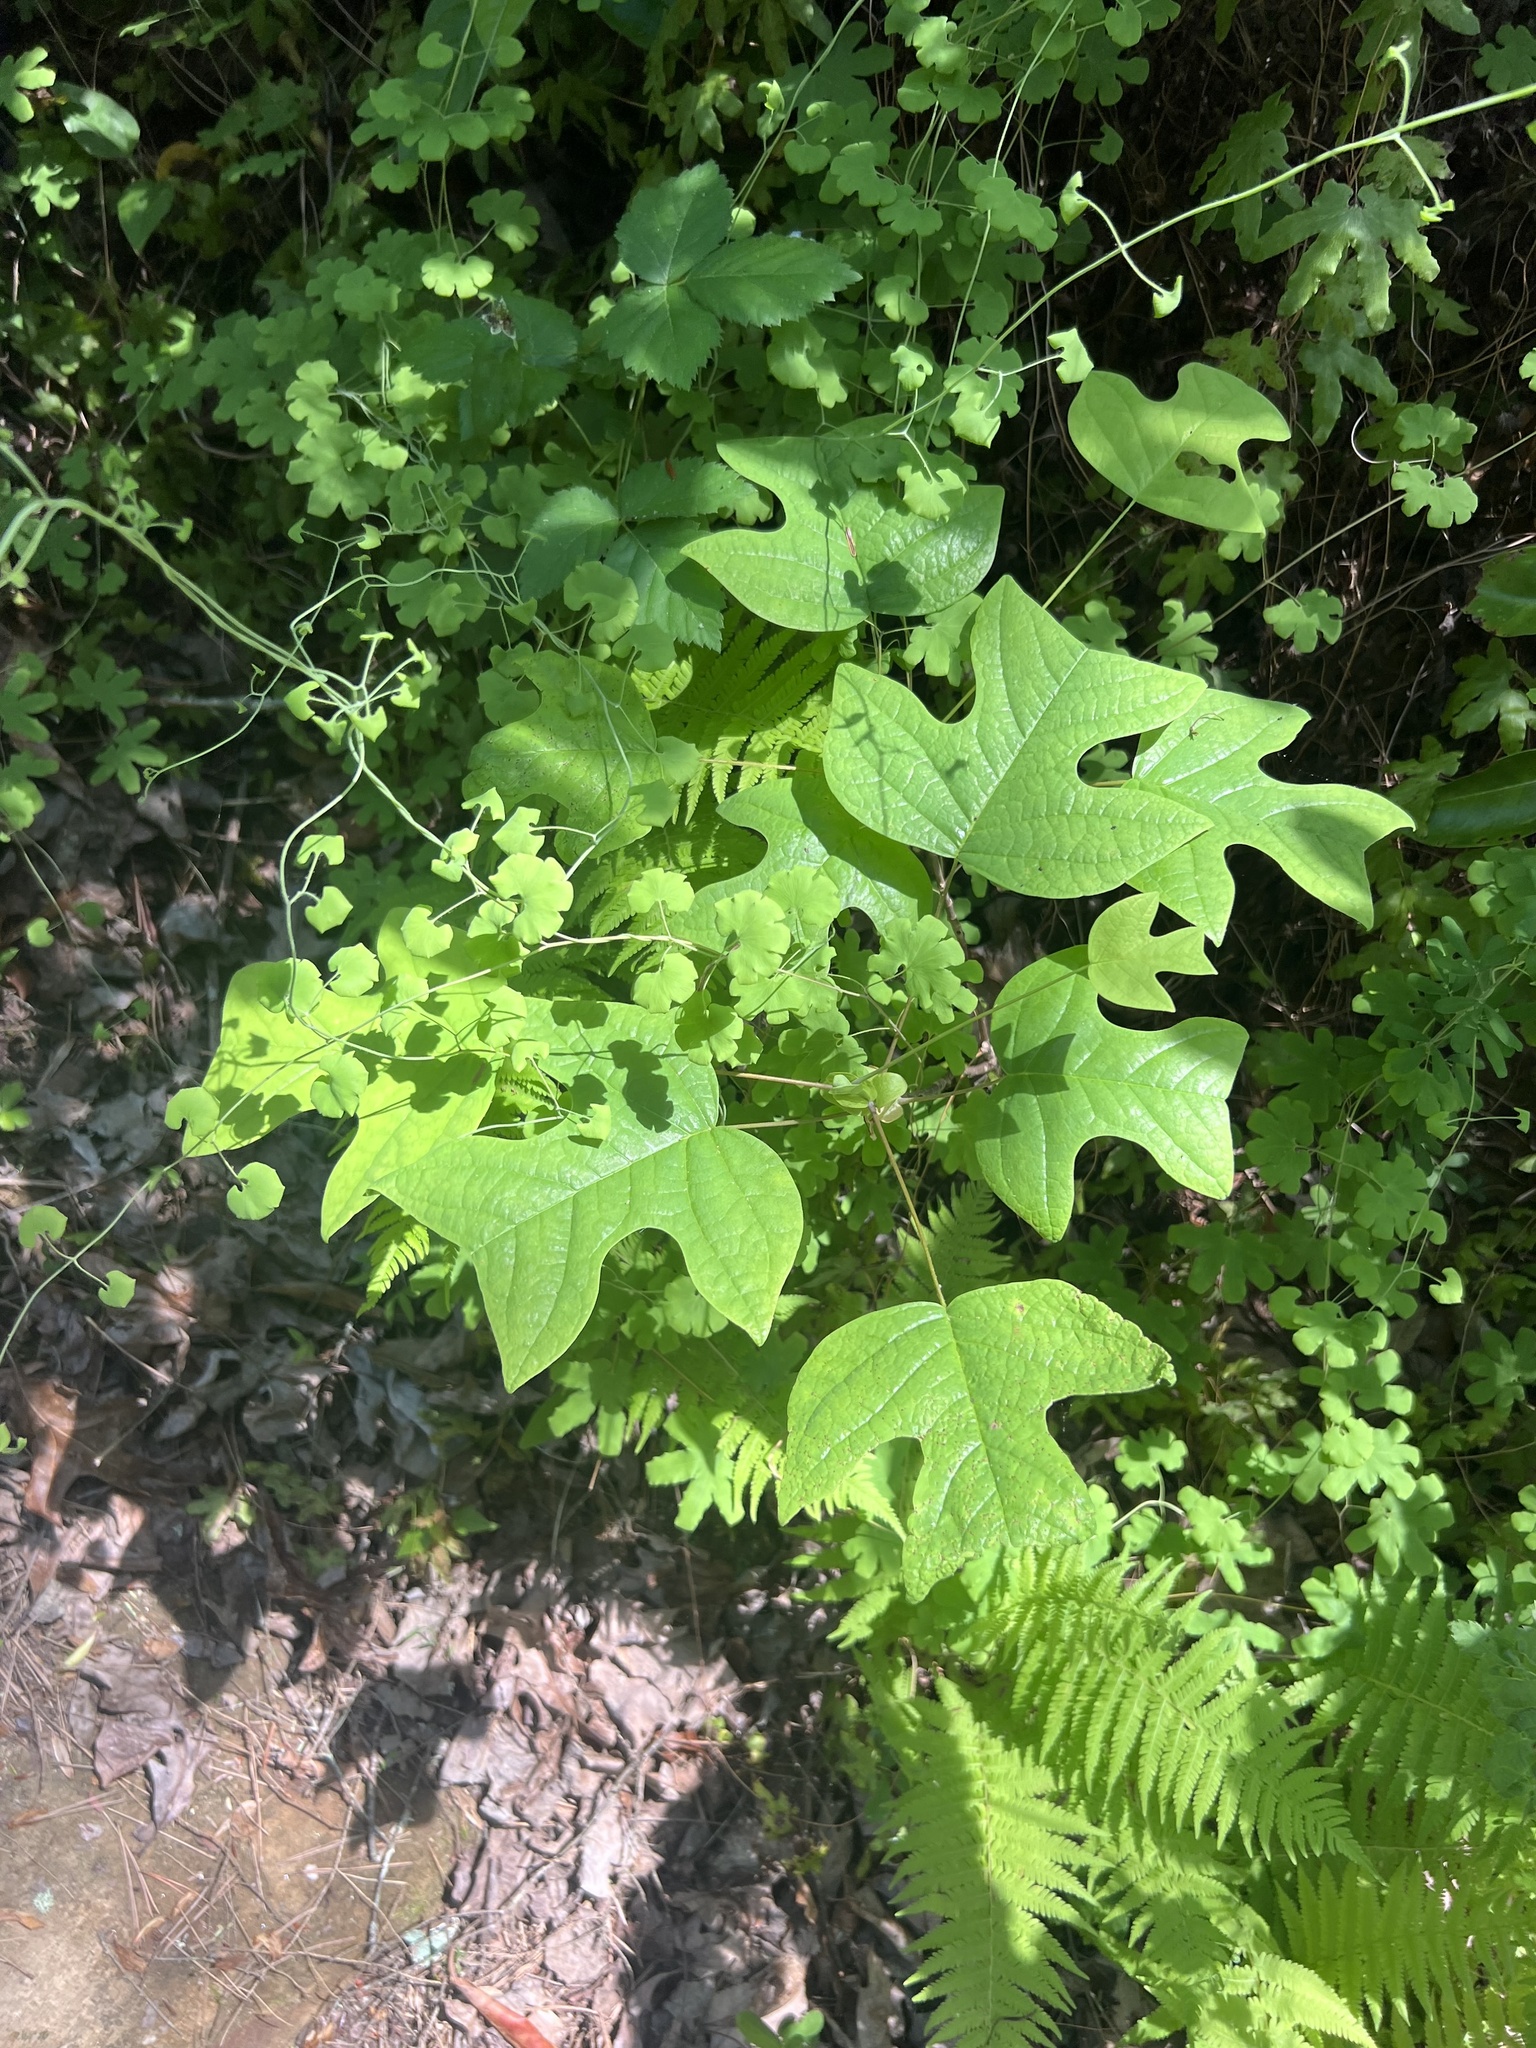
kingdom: Plantae
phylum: Tracheophyta
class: Magnoliopsida
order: Magnoliales
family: Magnoliaceae
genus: Liriodendron
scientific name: Liriodendron tulipifera
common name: Tulip tree
